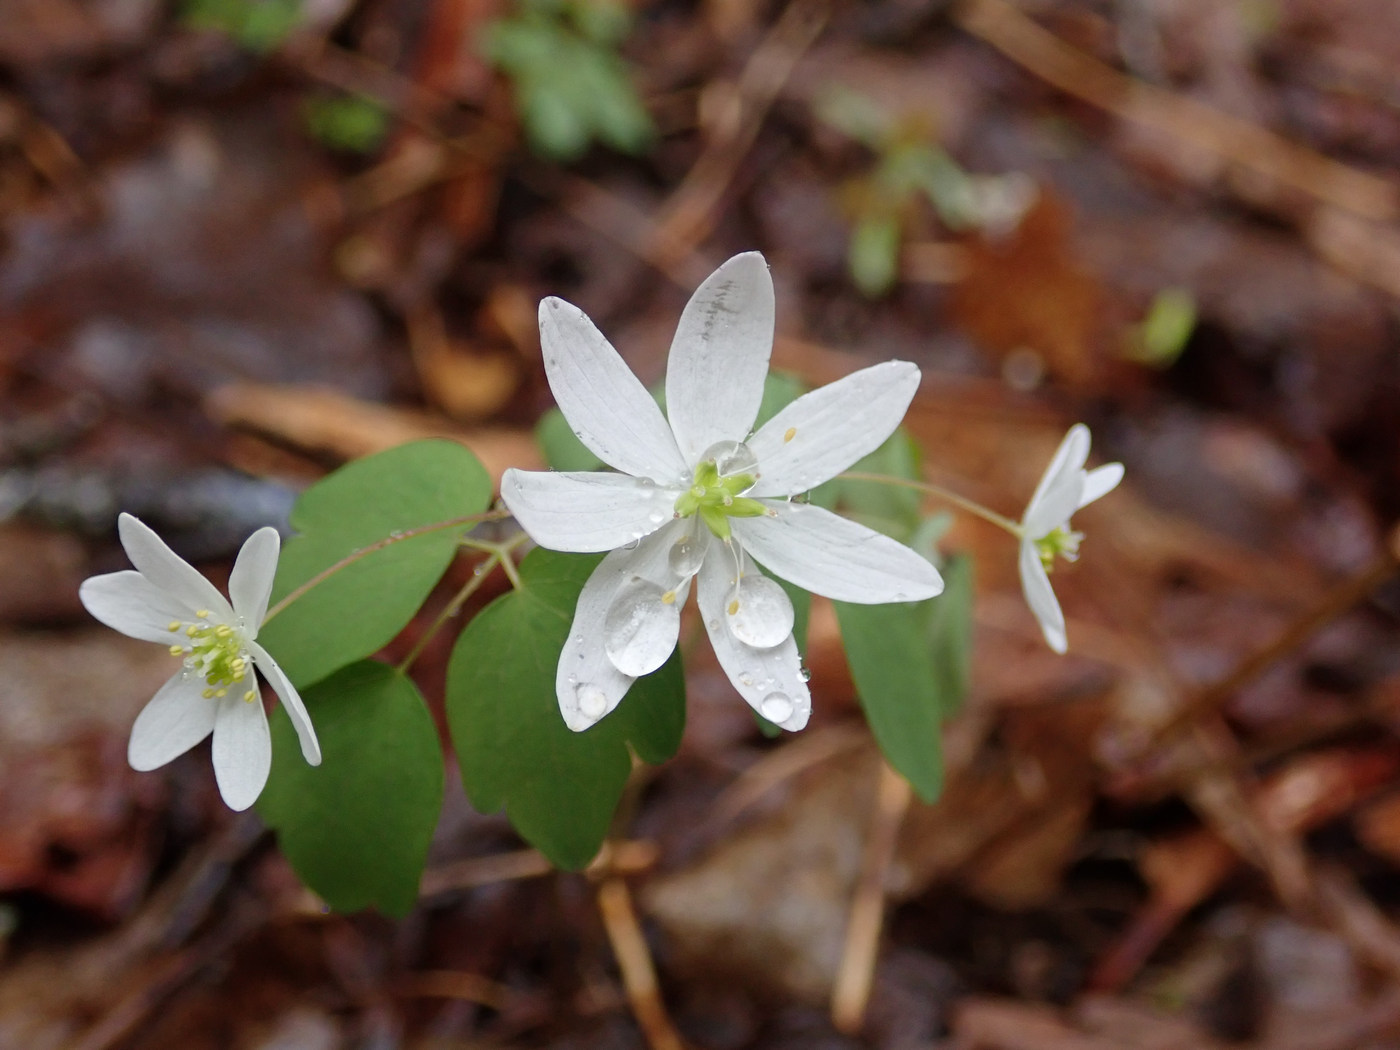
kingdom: Plantae
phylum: Tracheophyta
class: Magnoliopsida
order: Ranunculales
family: Ranunculaceae
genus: Thalictrum
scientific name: Thalictrum thalictroides
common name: Rue-anemone
